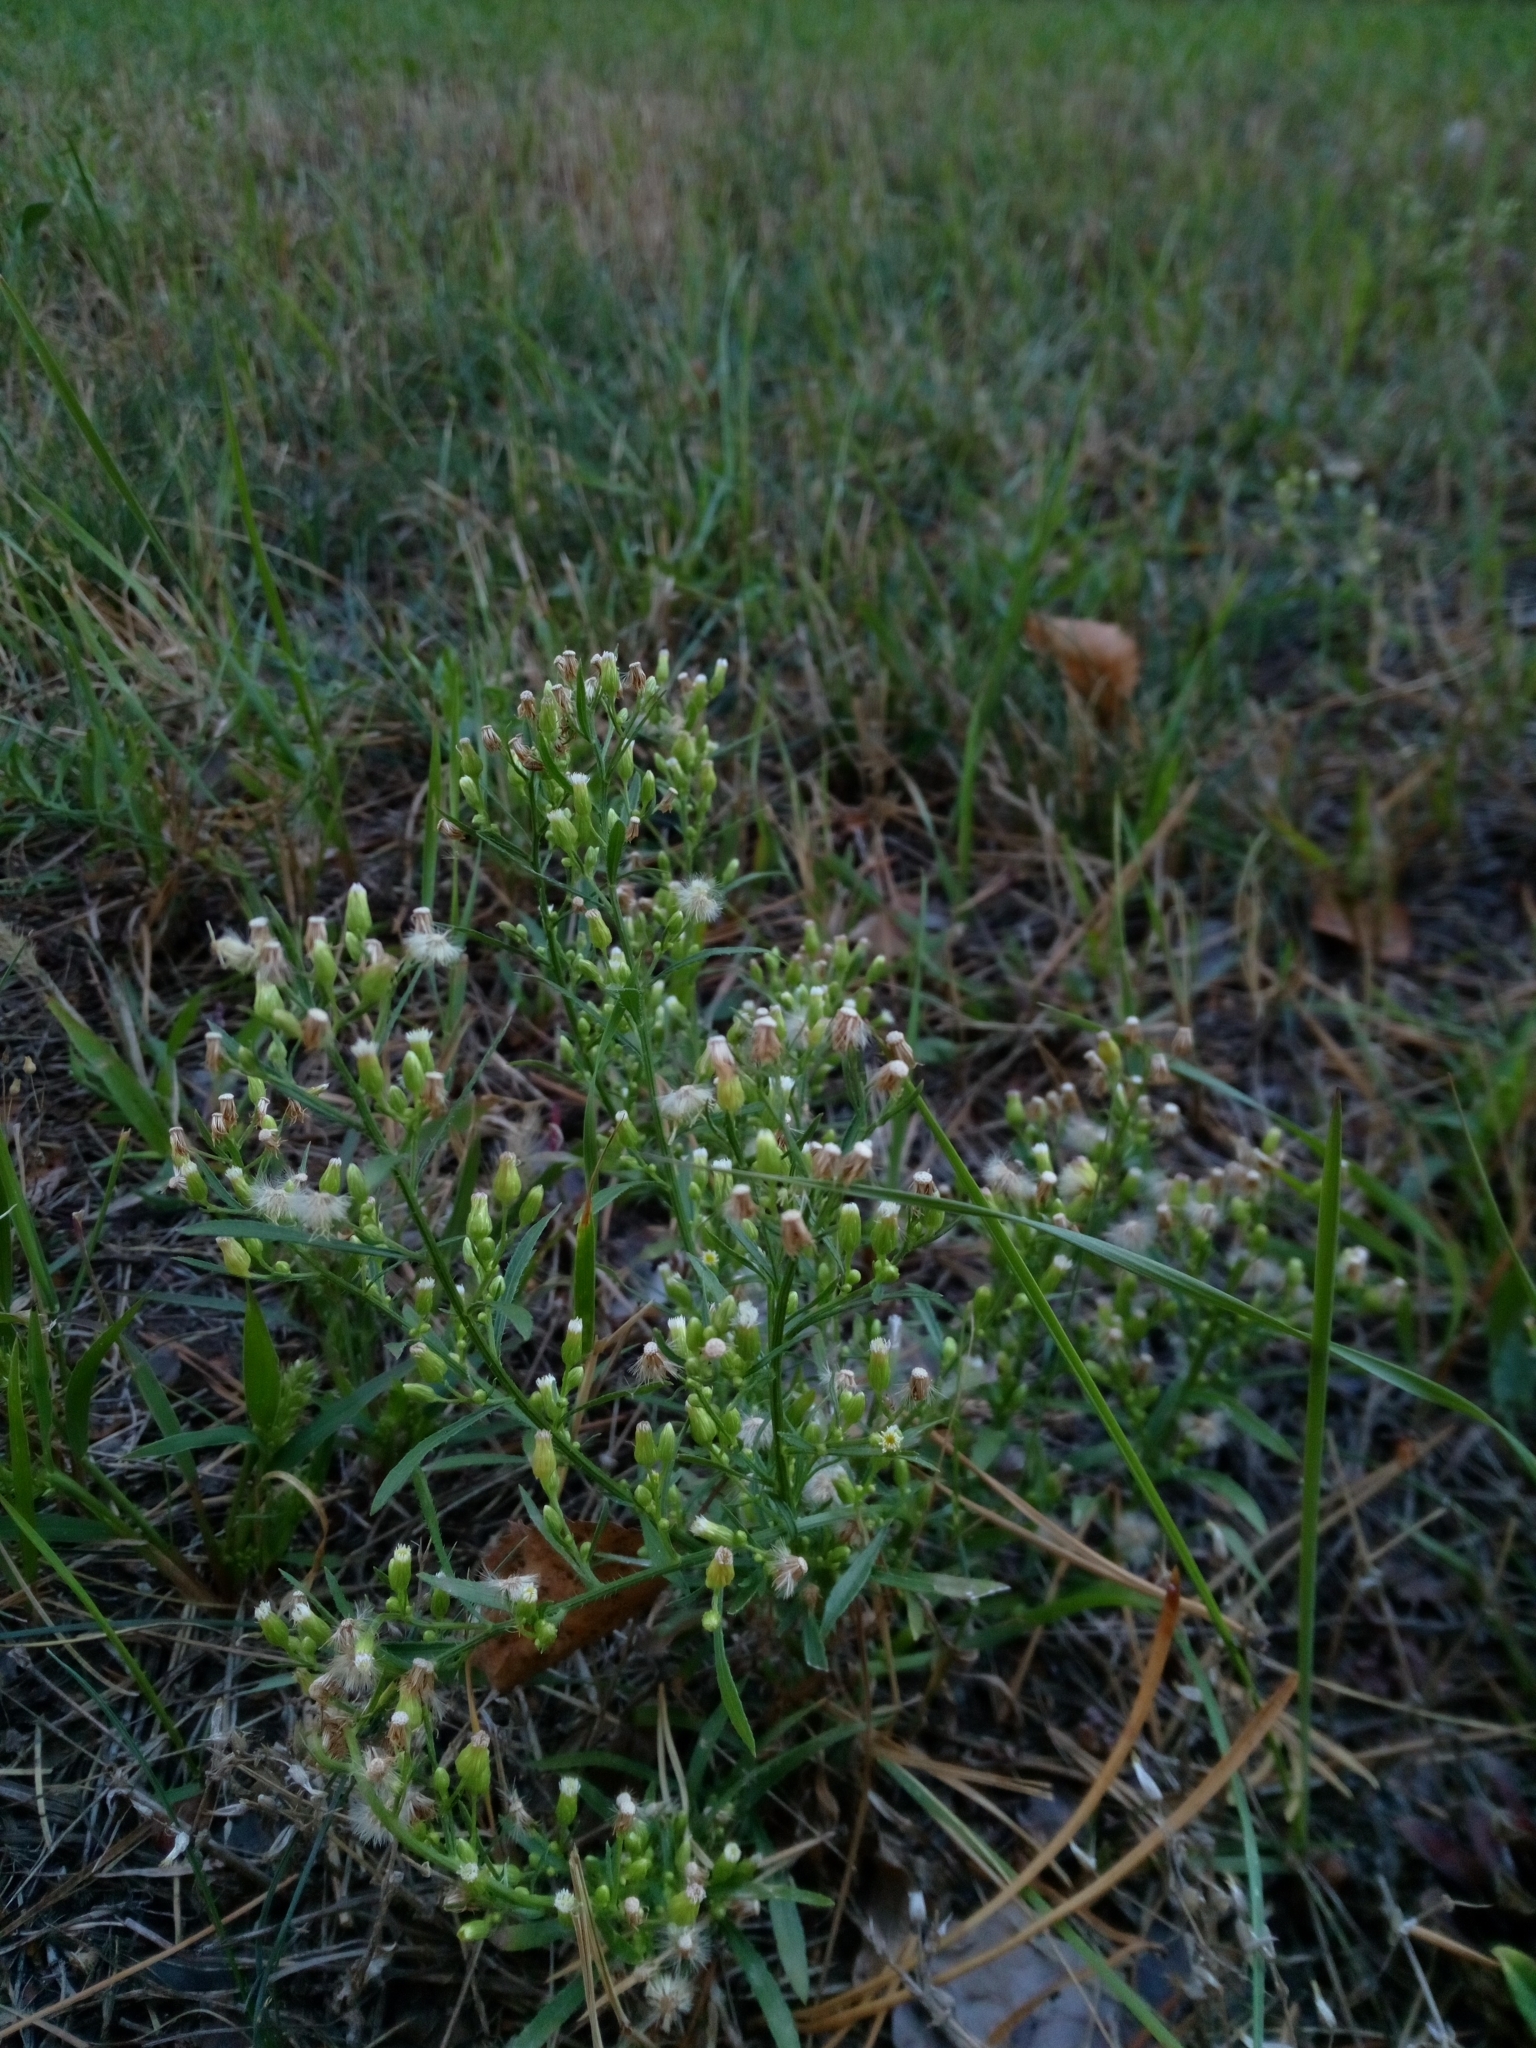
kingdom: Plantae
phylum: Tracheophyta
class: Magnoliopsida
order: Asterales
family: Asteraceae
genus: Erigeron
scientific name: Erigeron canadensis
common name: Canadian fleabane
